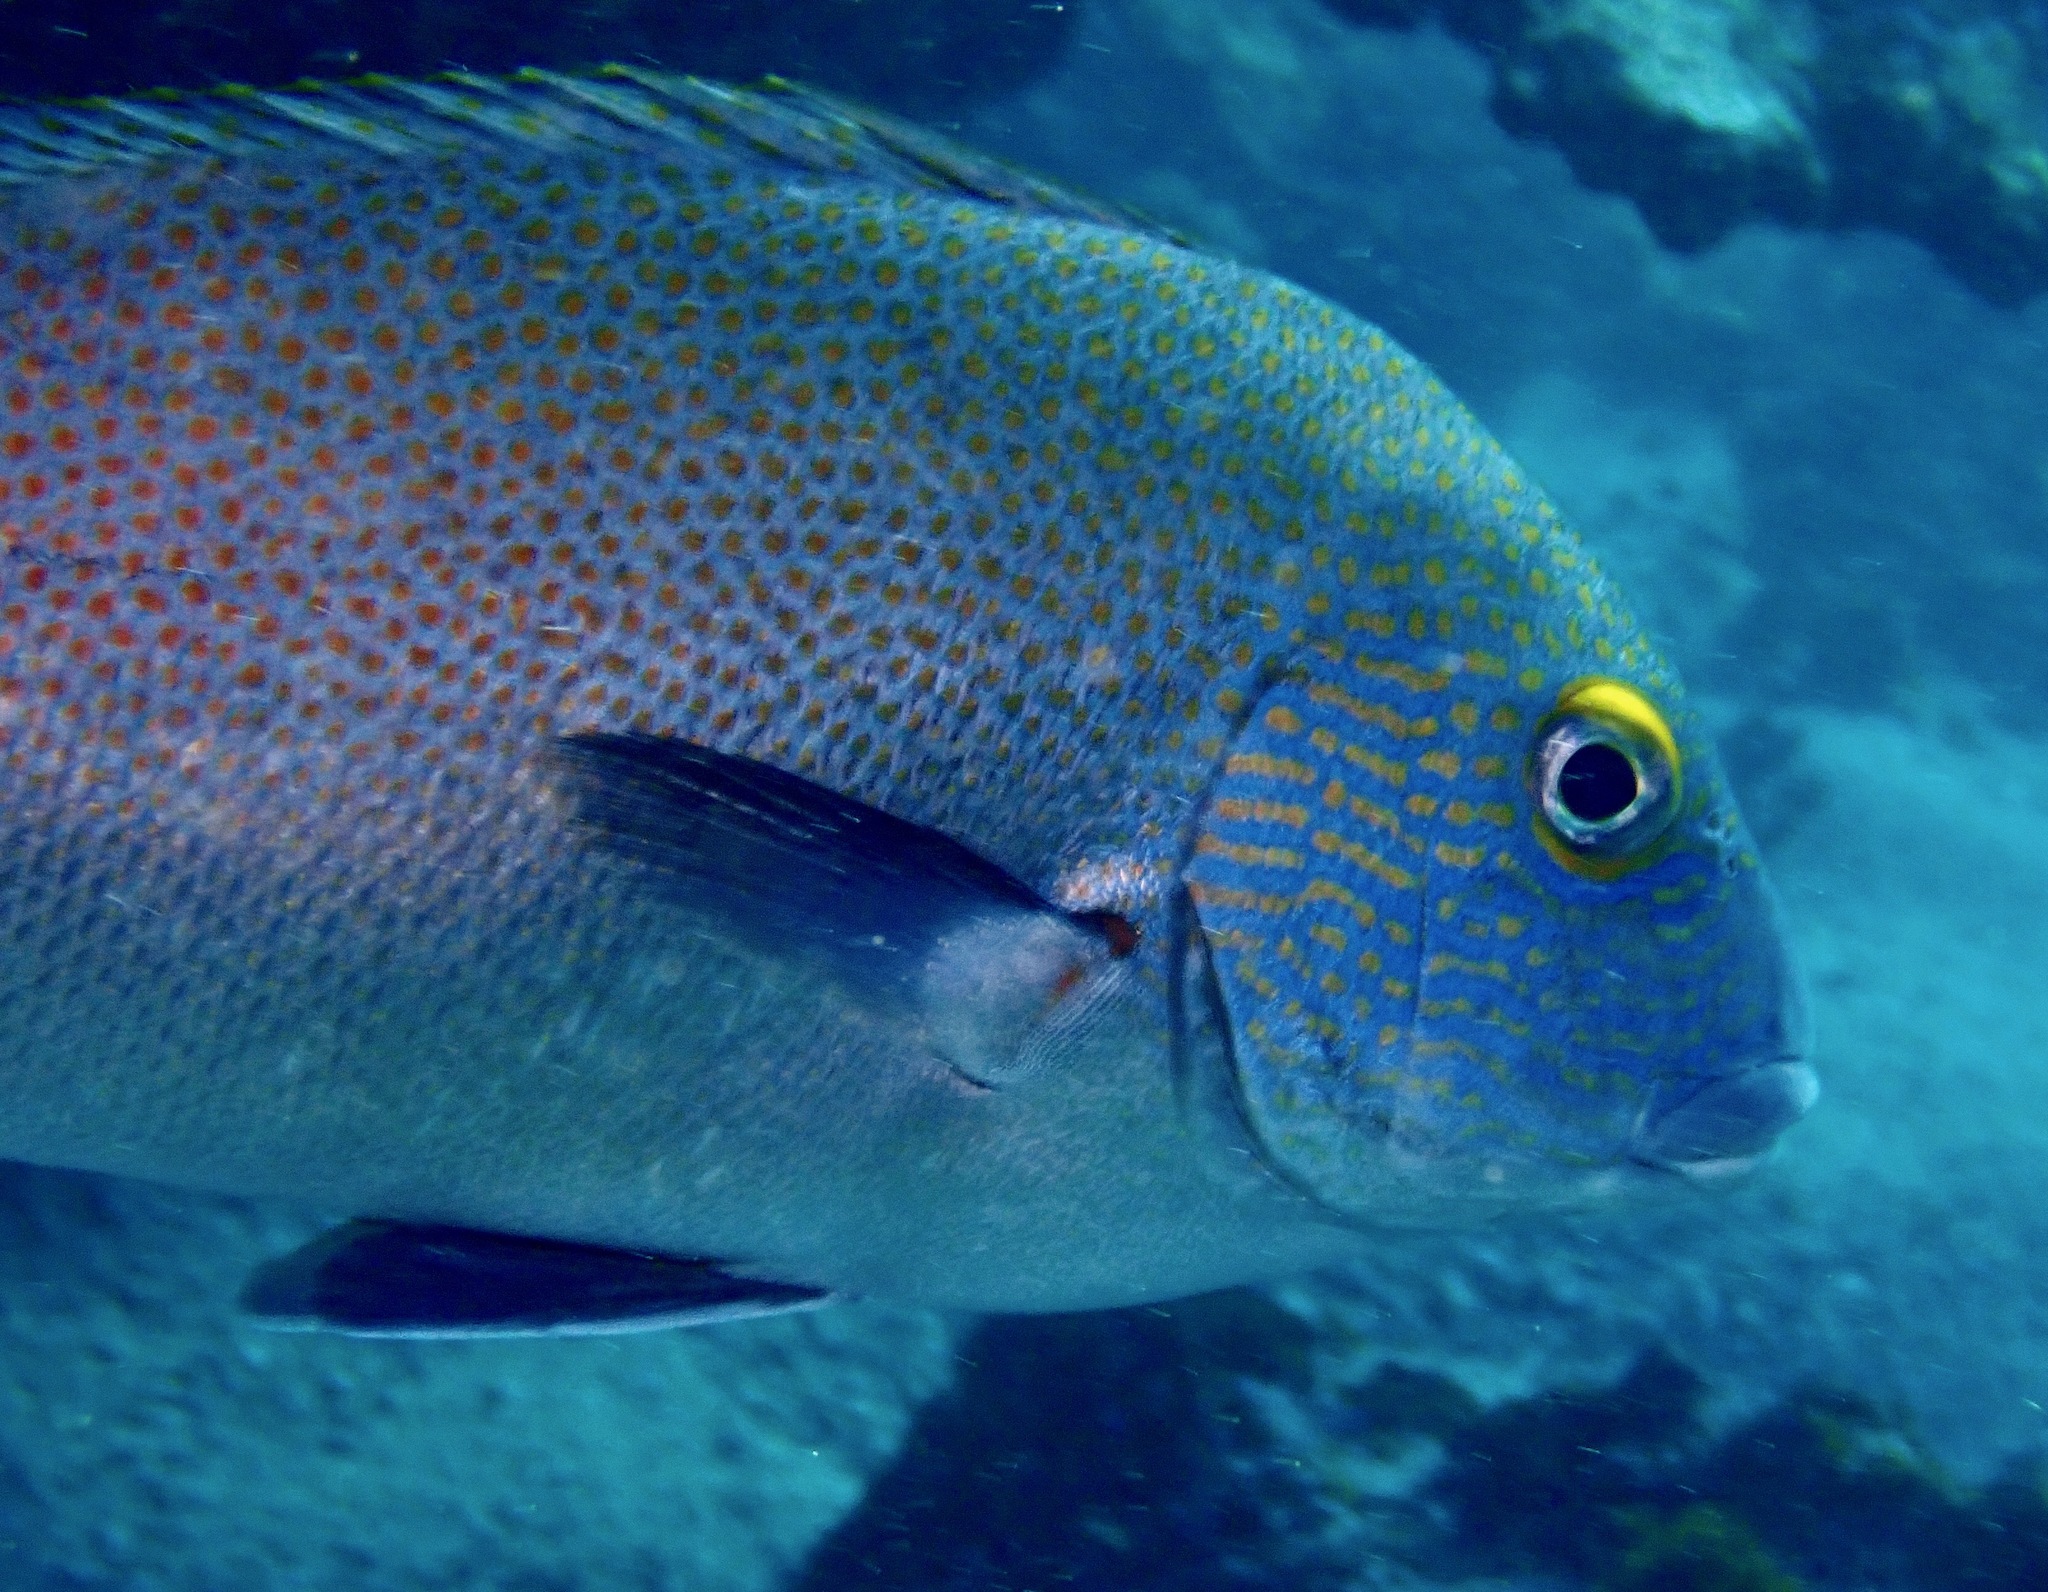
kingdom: Animalia
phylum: Chordata
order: Perciformes
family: Haemulidae
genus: Plectorhinchus
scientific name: Plectorhinchus flavomaculatus
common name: Netted sweetlips
